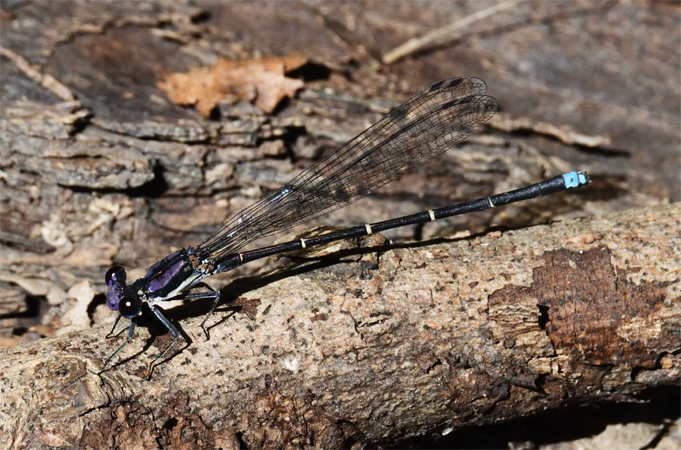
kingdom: Animalia
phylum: Arthropoda
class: Insecta
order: Odonata
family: Coenagrionidae
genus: Argia
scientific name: Argia tibialis
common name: Blue-tipped dancer
